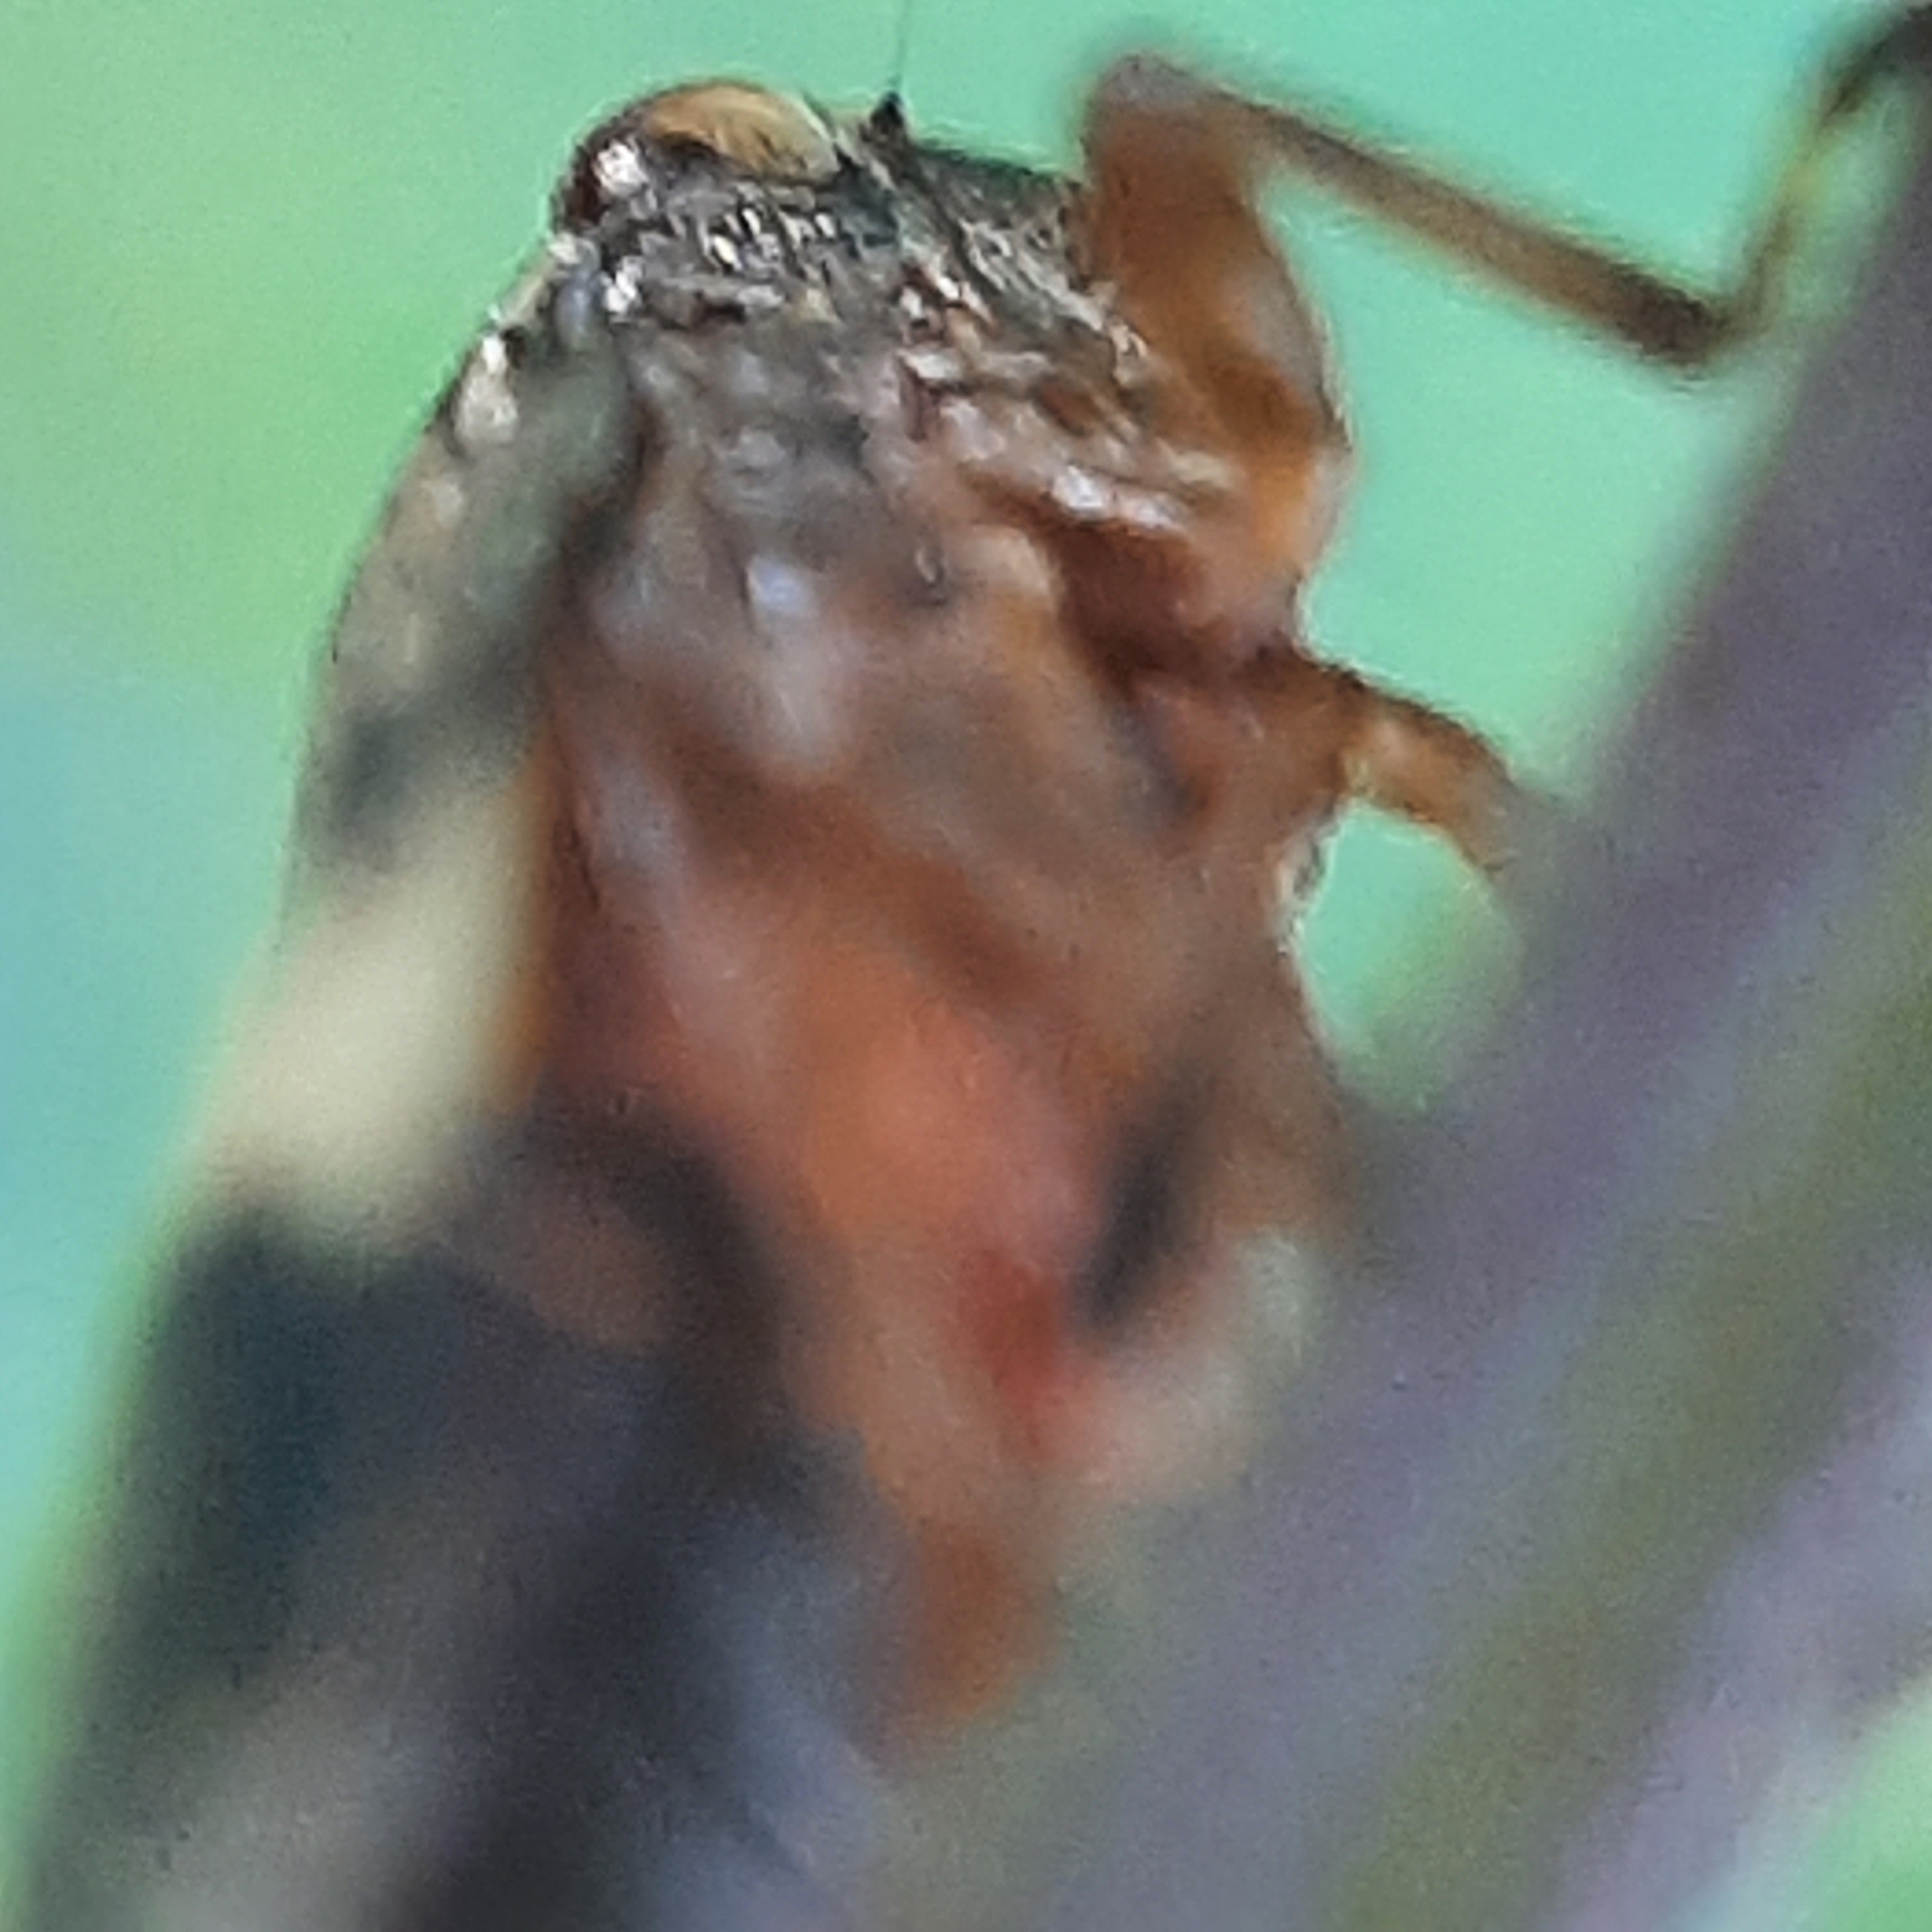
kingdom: Animalia
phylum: Arthropoda
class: Insecta
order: Hemiptera
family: Aphrophoridae
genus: Aphrophora
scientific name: Aphrophora alni
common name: European alder spittlebug
